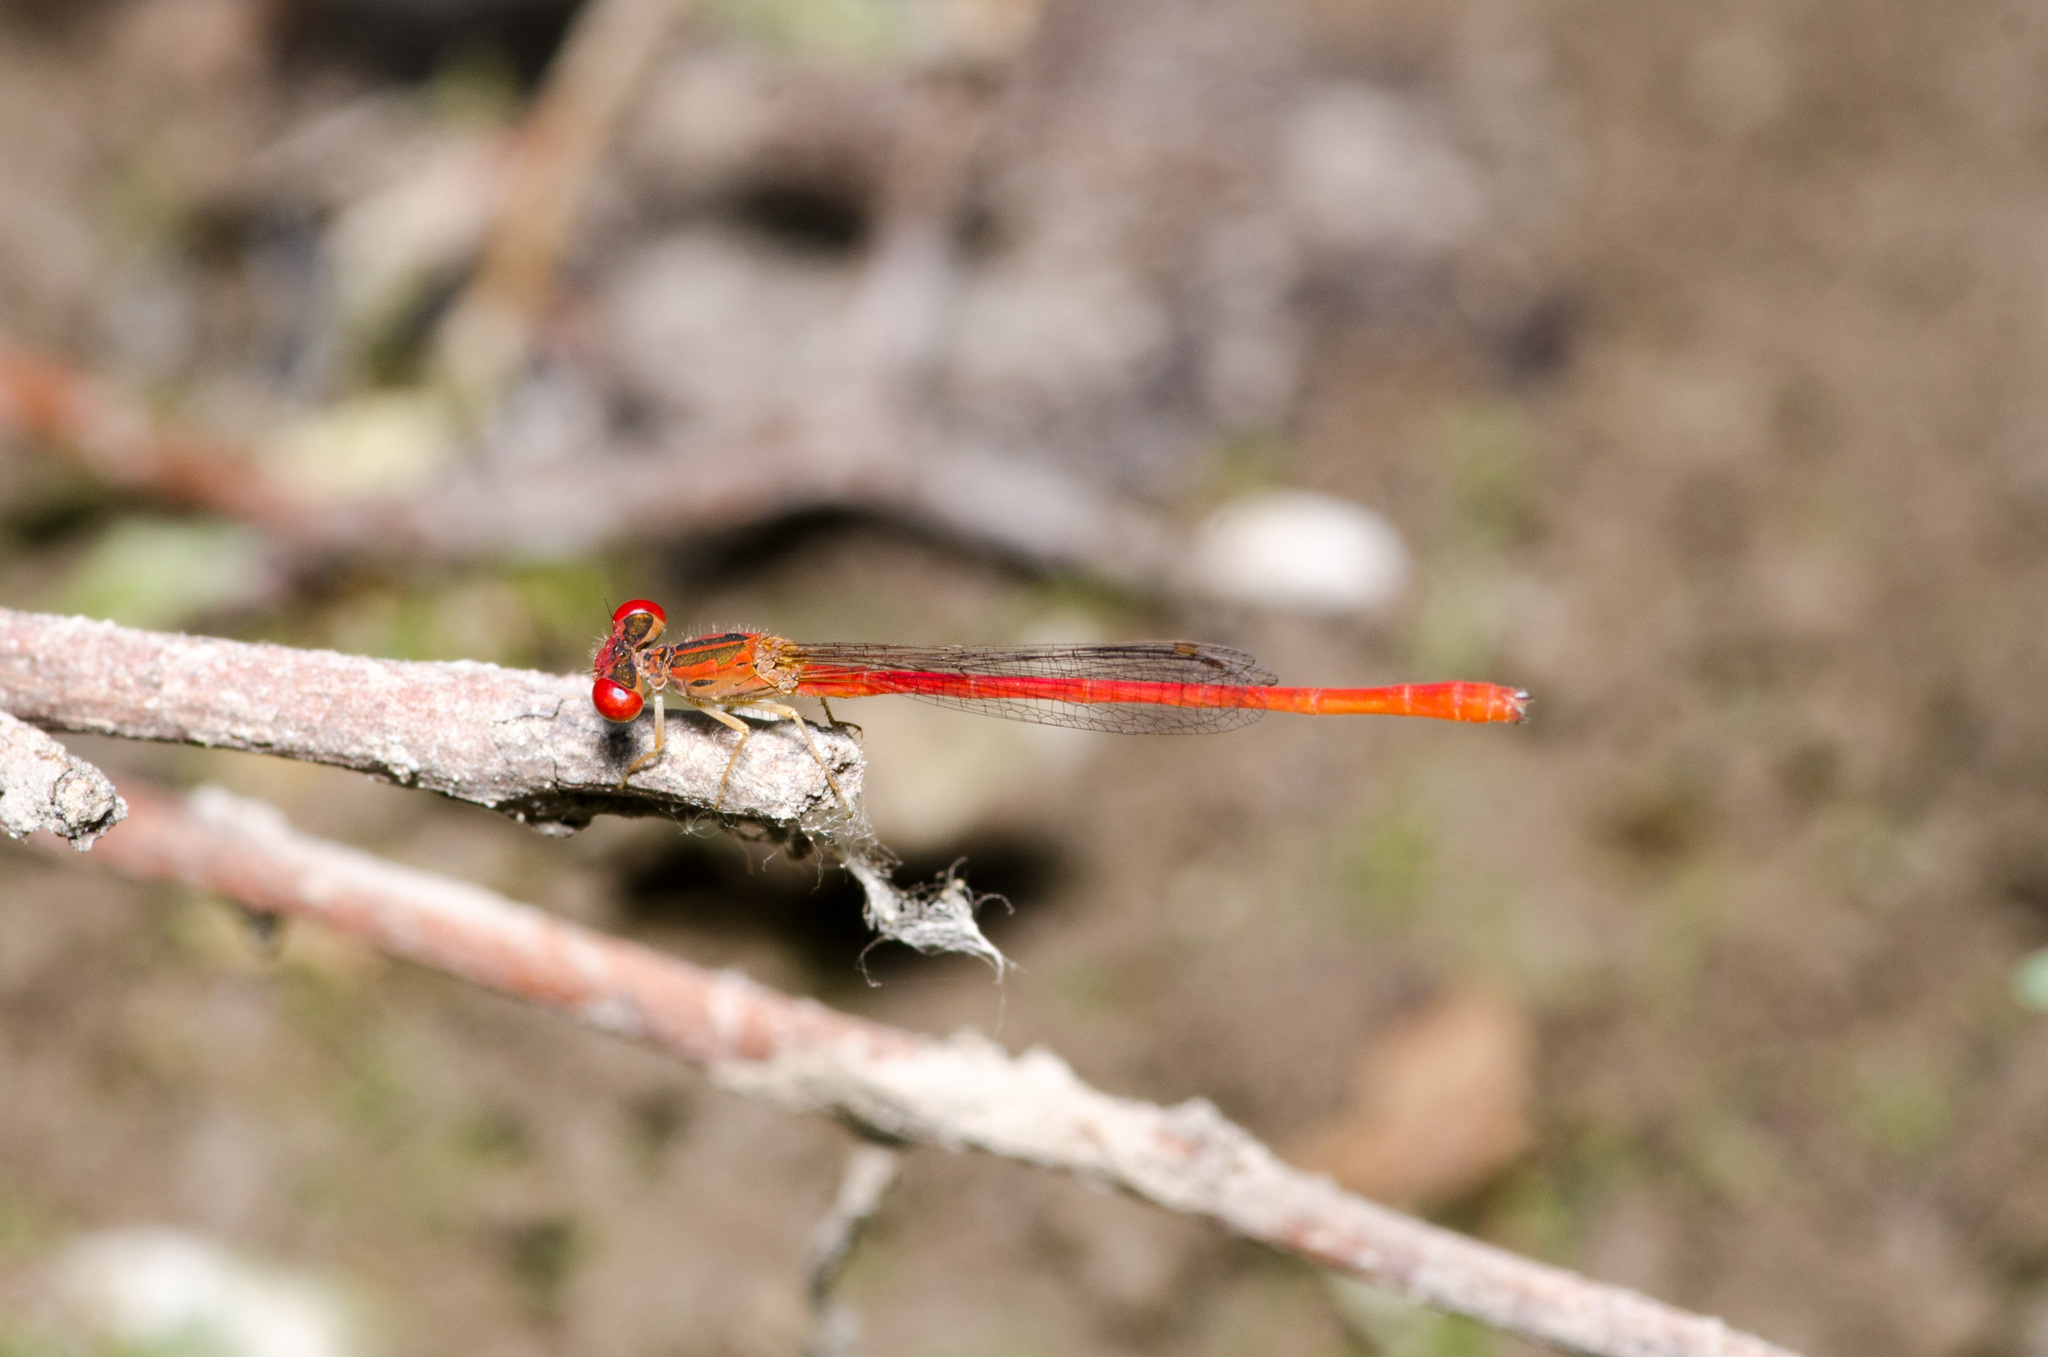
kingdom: Animalia
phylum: Arthropoda
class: Insecta
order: Odonata
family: Coenagrionidae
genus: Telebasis
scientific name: Telebasis salva
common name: Desert firetail
